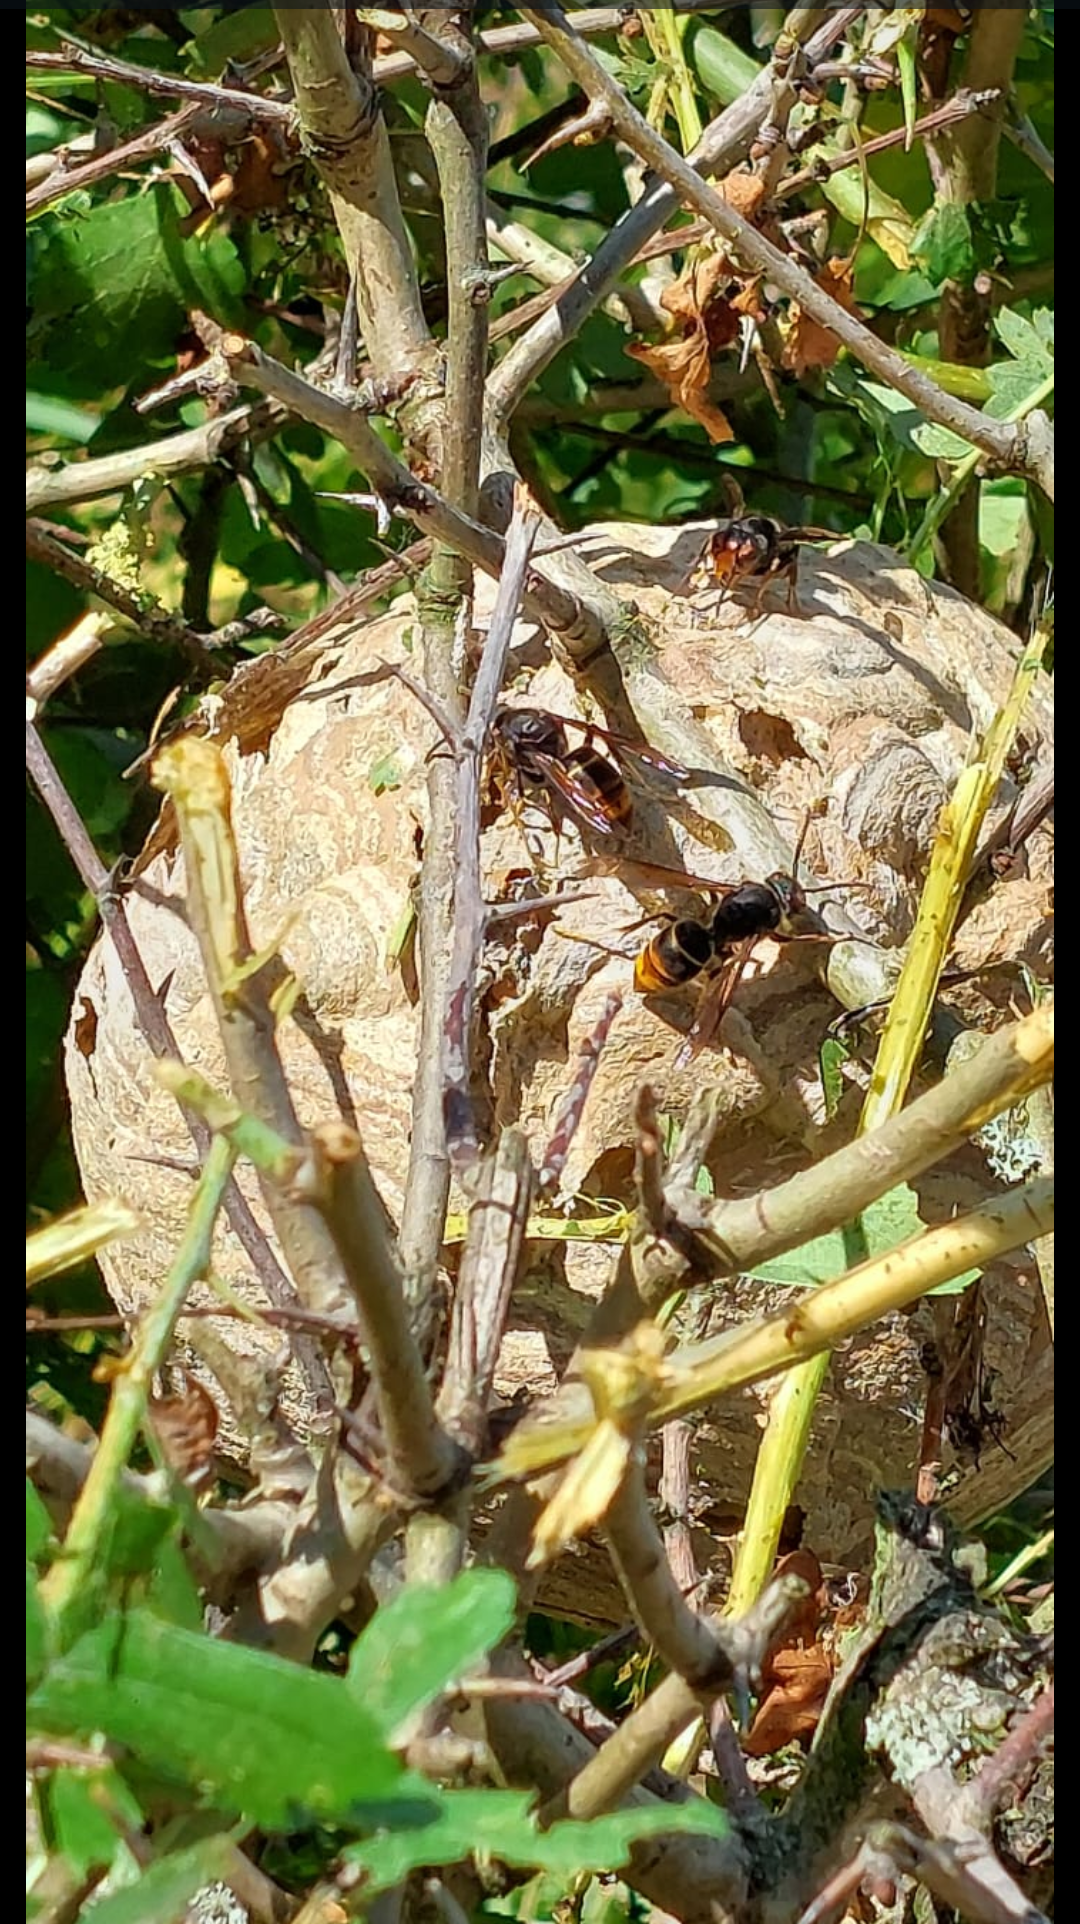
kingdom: Animalia
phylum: Arthropoda
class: Insecta
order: Hymenoptera
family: Vespidae
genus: Vespa
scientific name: Vespa velutina
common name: Asian hornet
